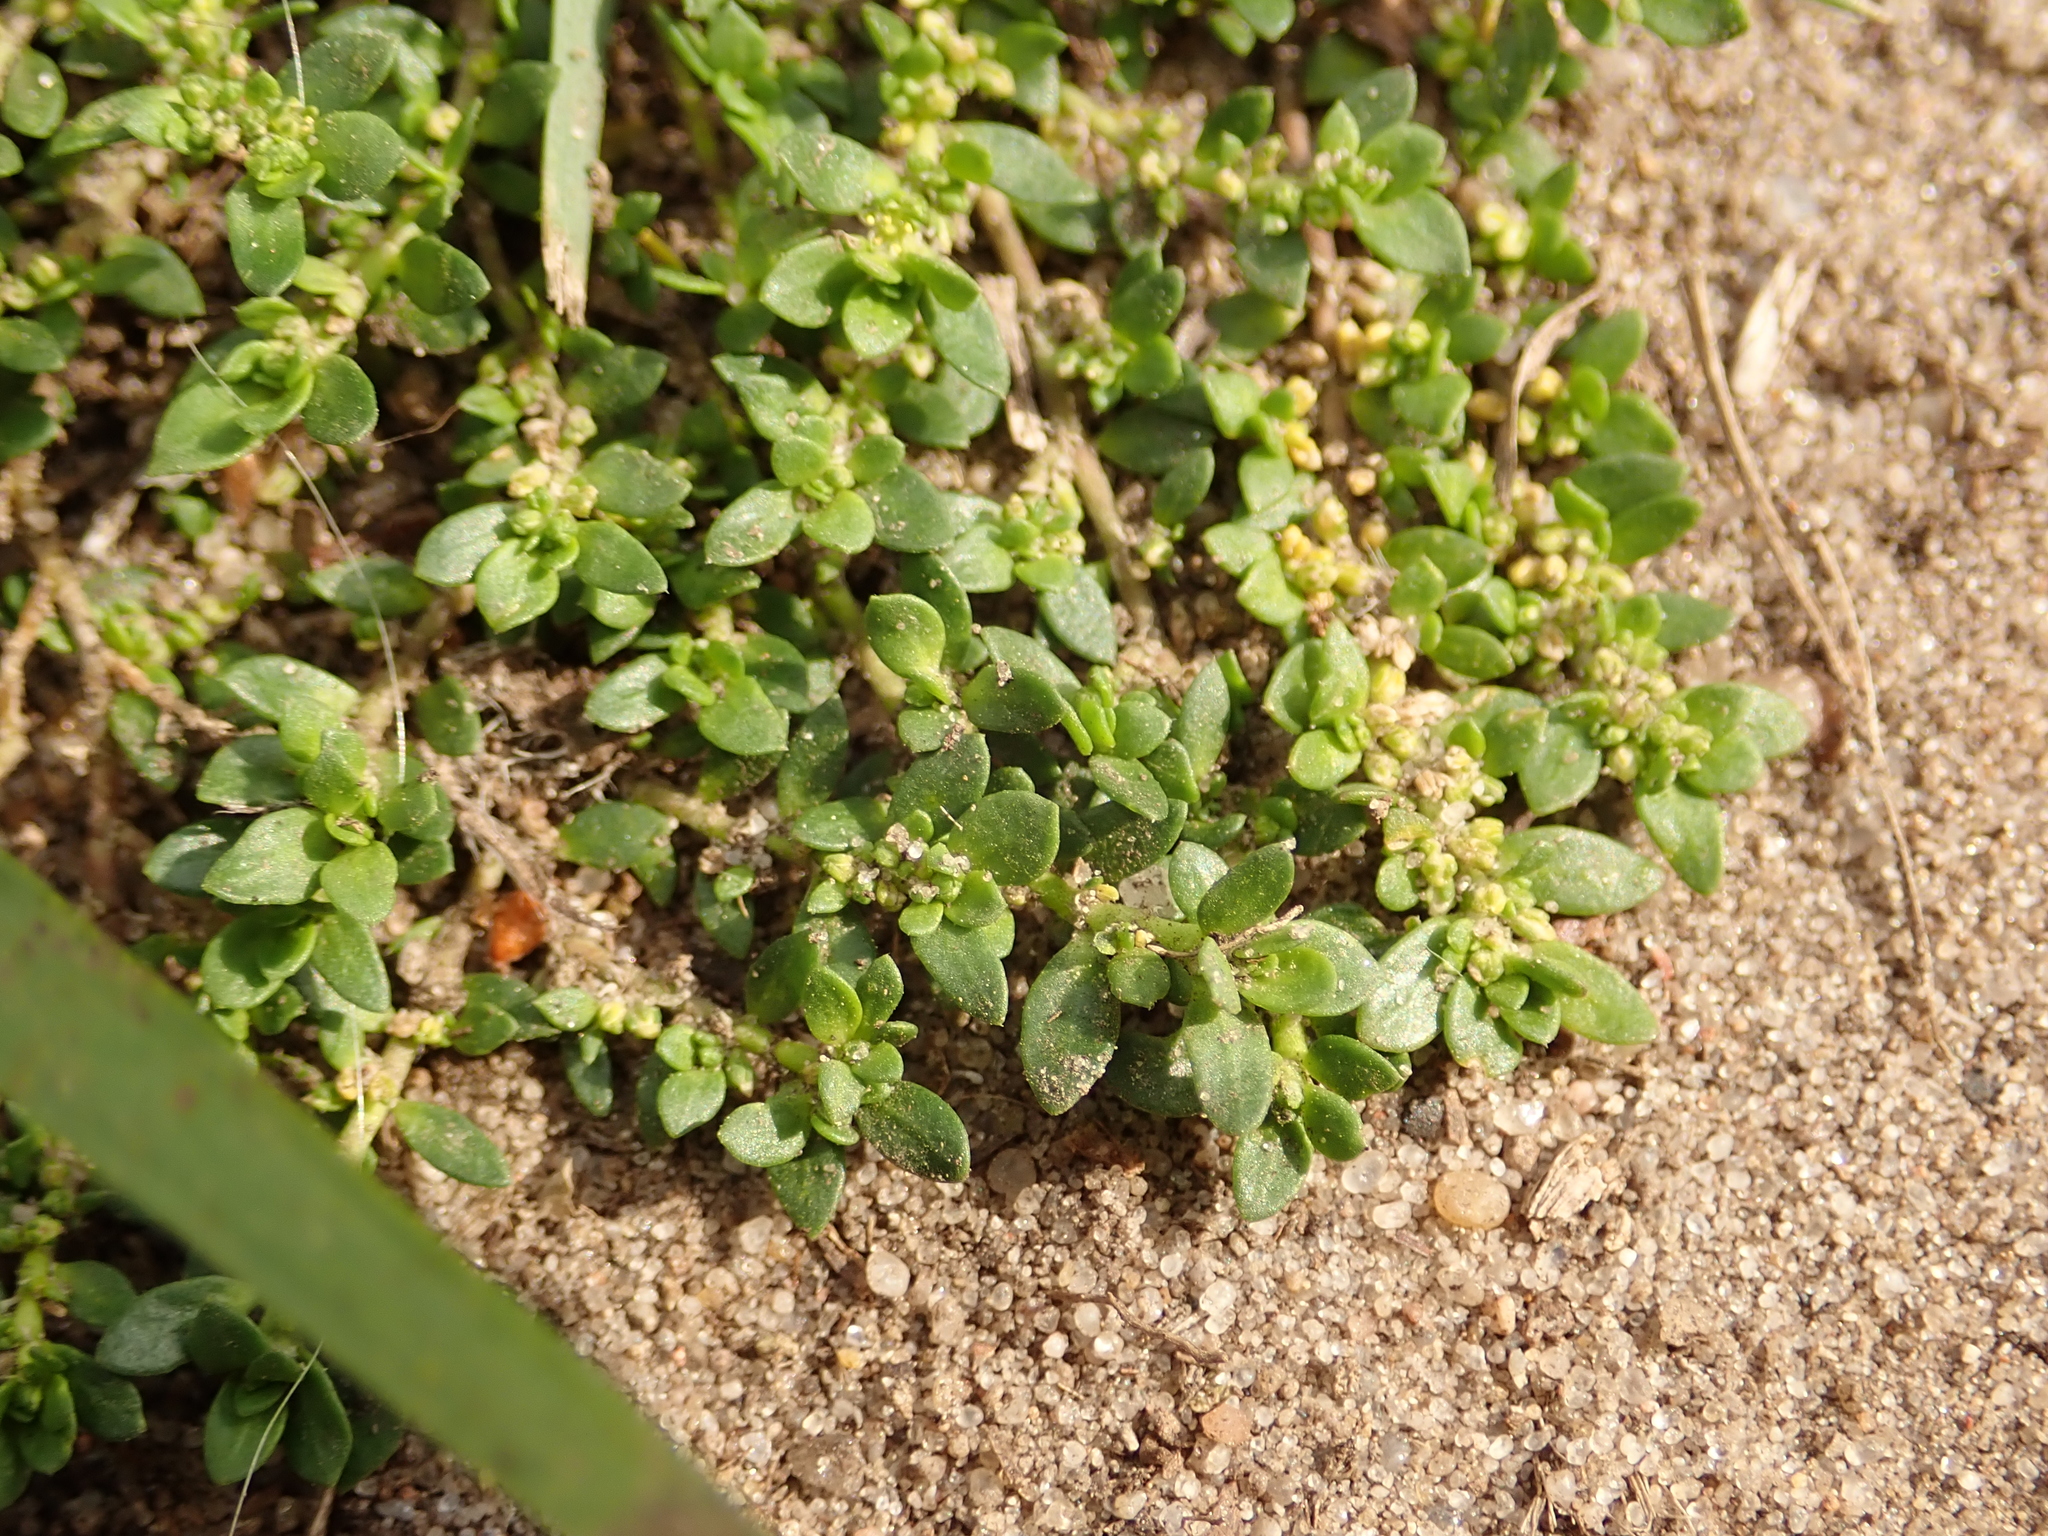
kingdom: Plantae
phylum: Tracheophyta
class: Magnoliopsida
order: Caryophyllales
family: Caryophyllaceae
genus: Herniaria
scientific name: Herniaria glabra
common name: Smooth rupturewort
